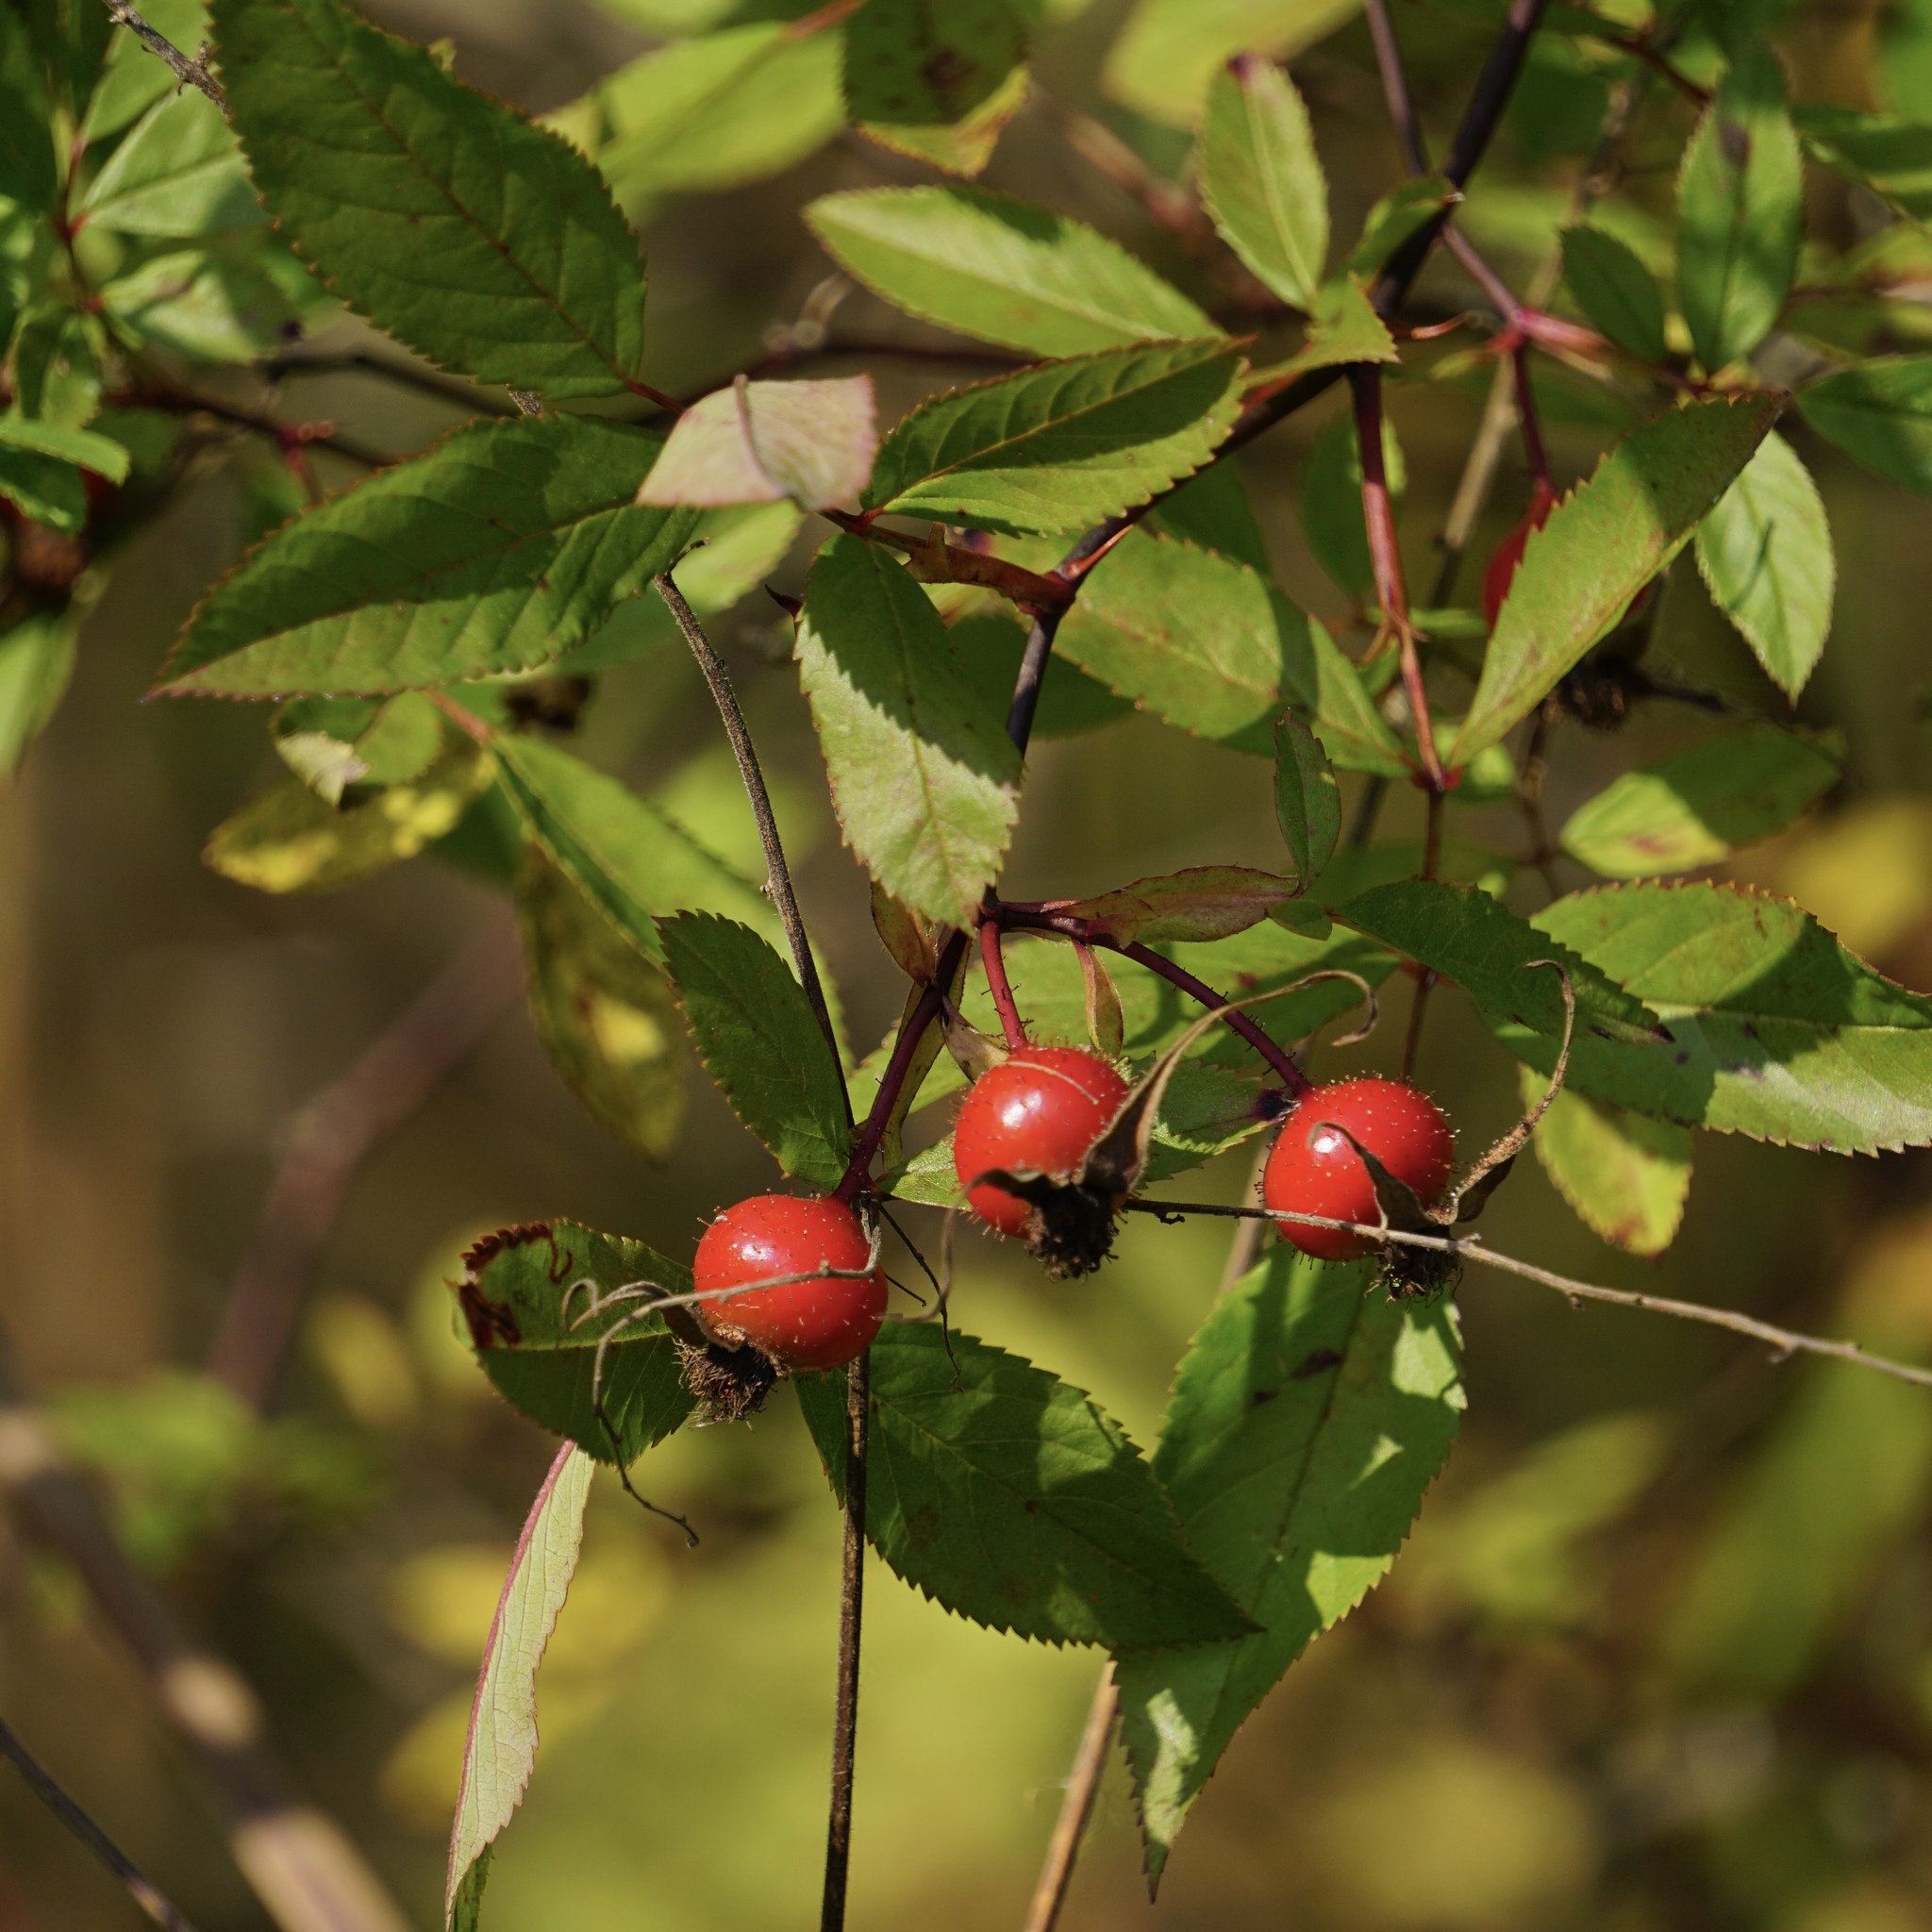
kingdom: Plantae
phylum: Tracheophyta
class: Magnoliopsida
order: Rosales
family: Rosaceae
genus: Rosa
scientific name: Rosa palustris
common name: Swamp rose
